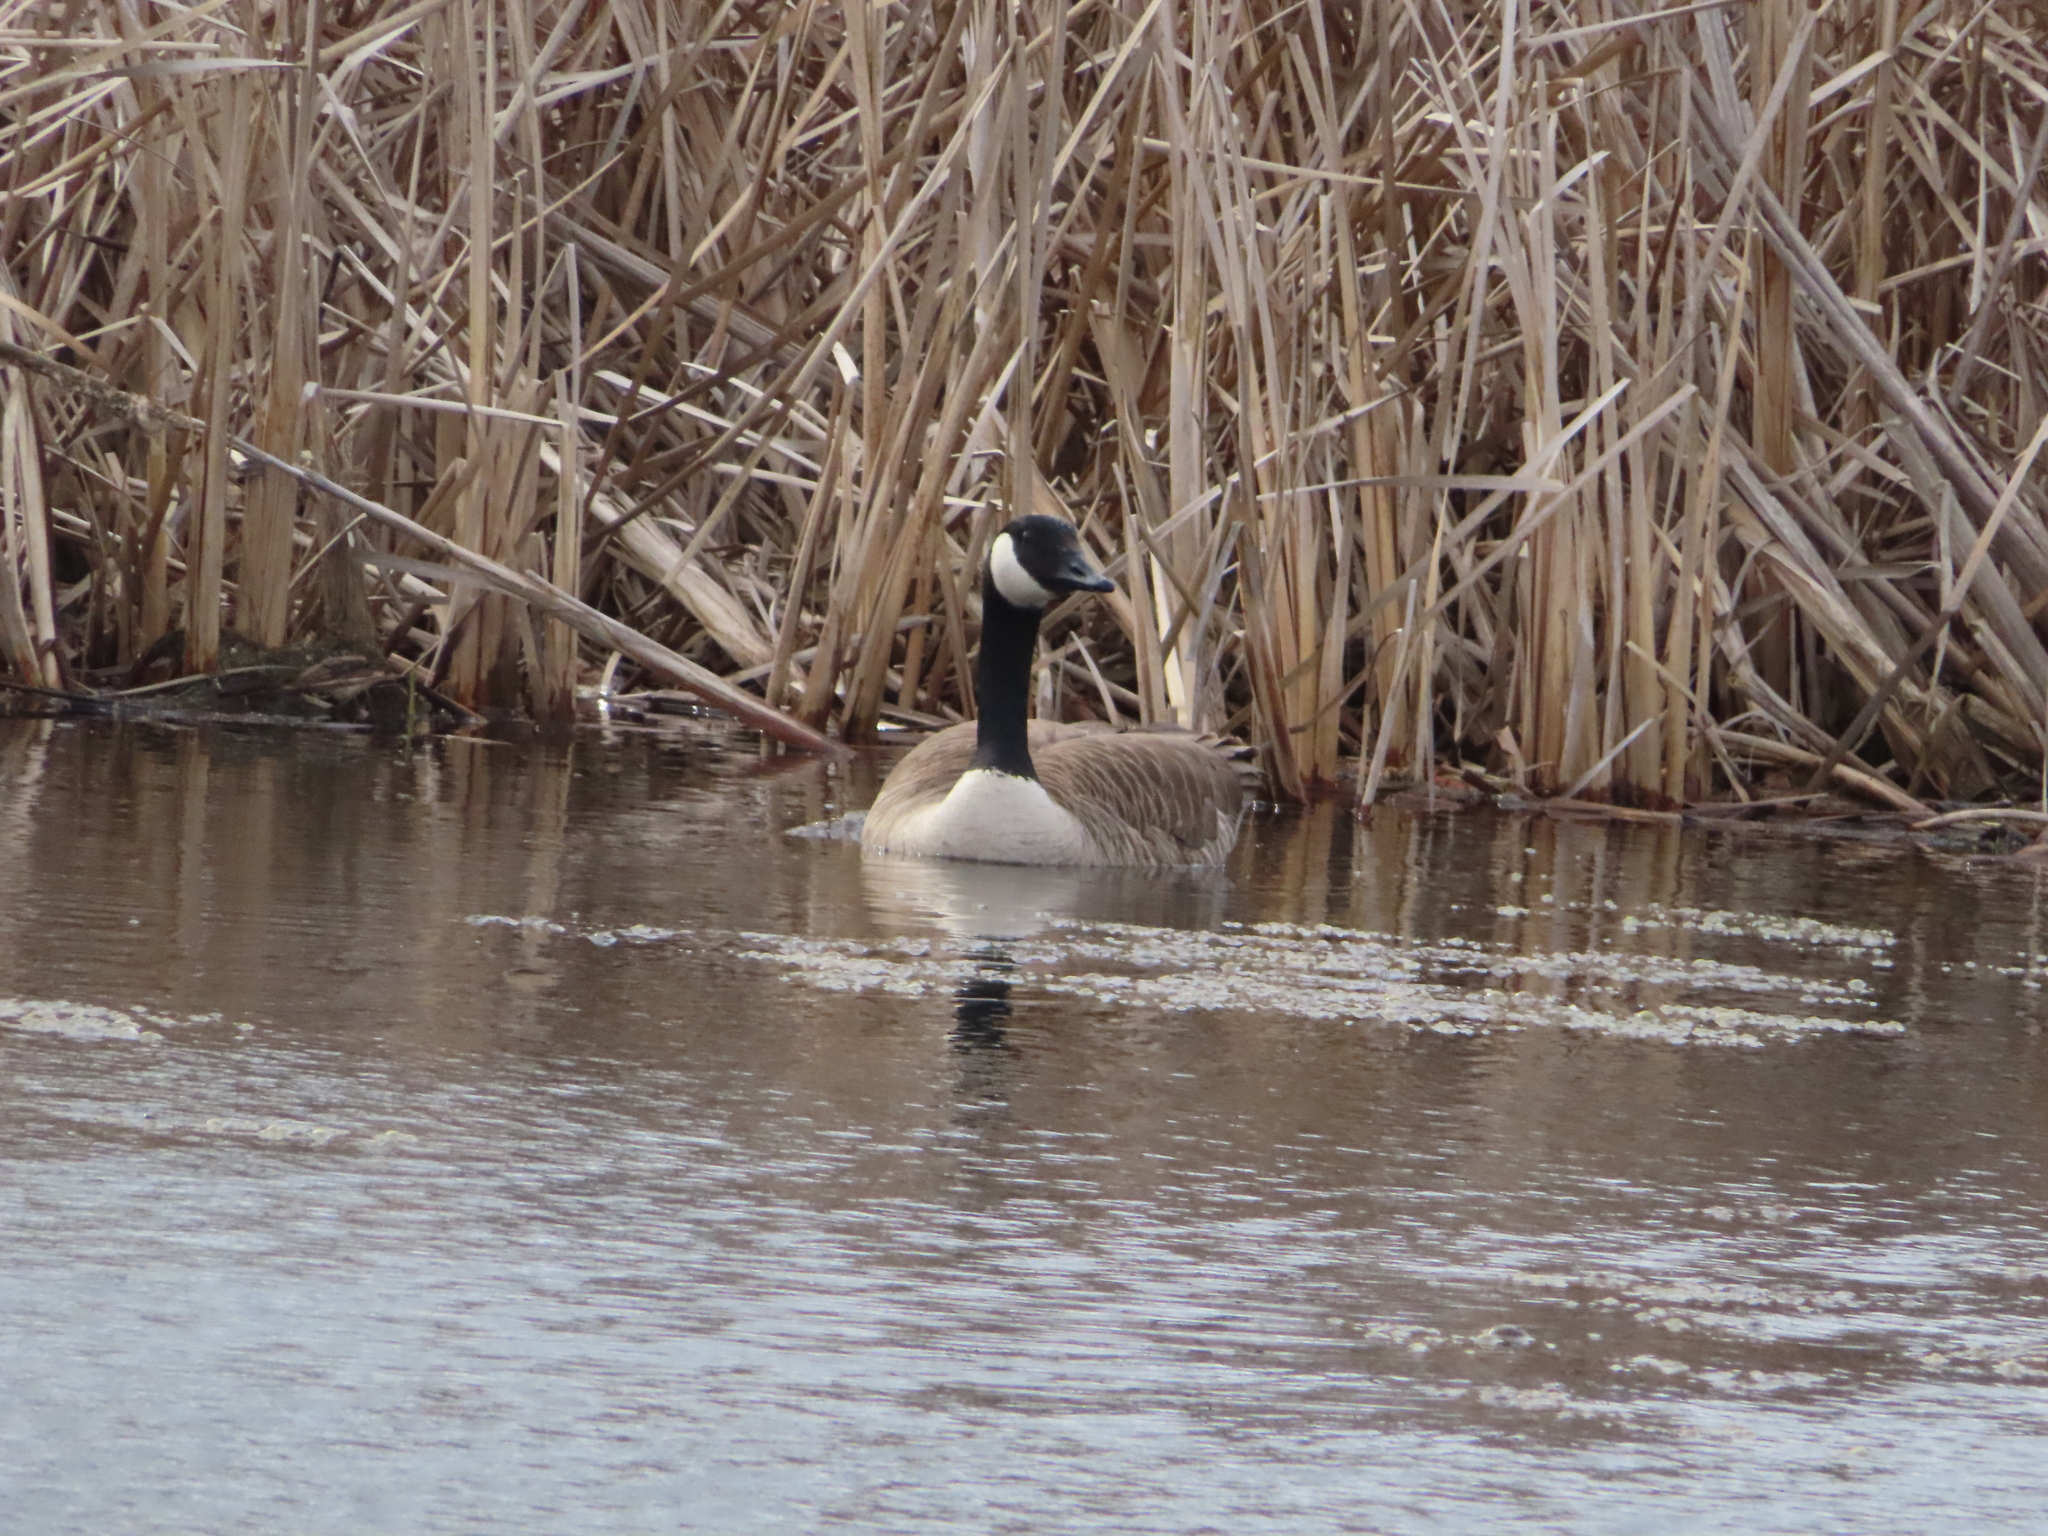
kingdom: Animalia
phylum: Chordata
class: Aves
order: Anseriformes
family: Anatidae
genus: Branta
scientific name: Branta canadensis
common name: Canada goose
